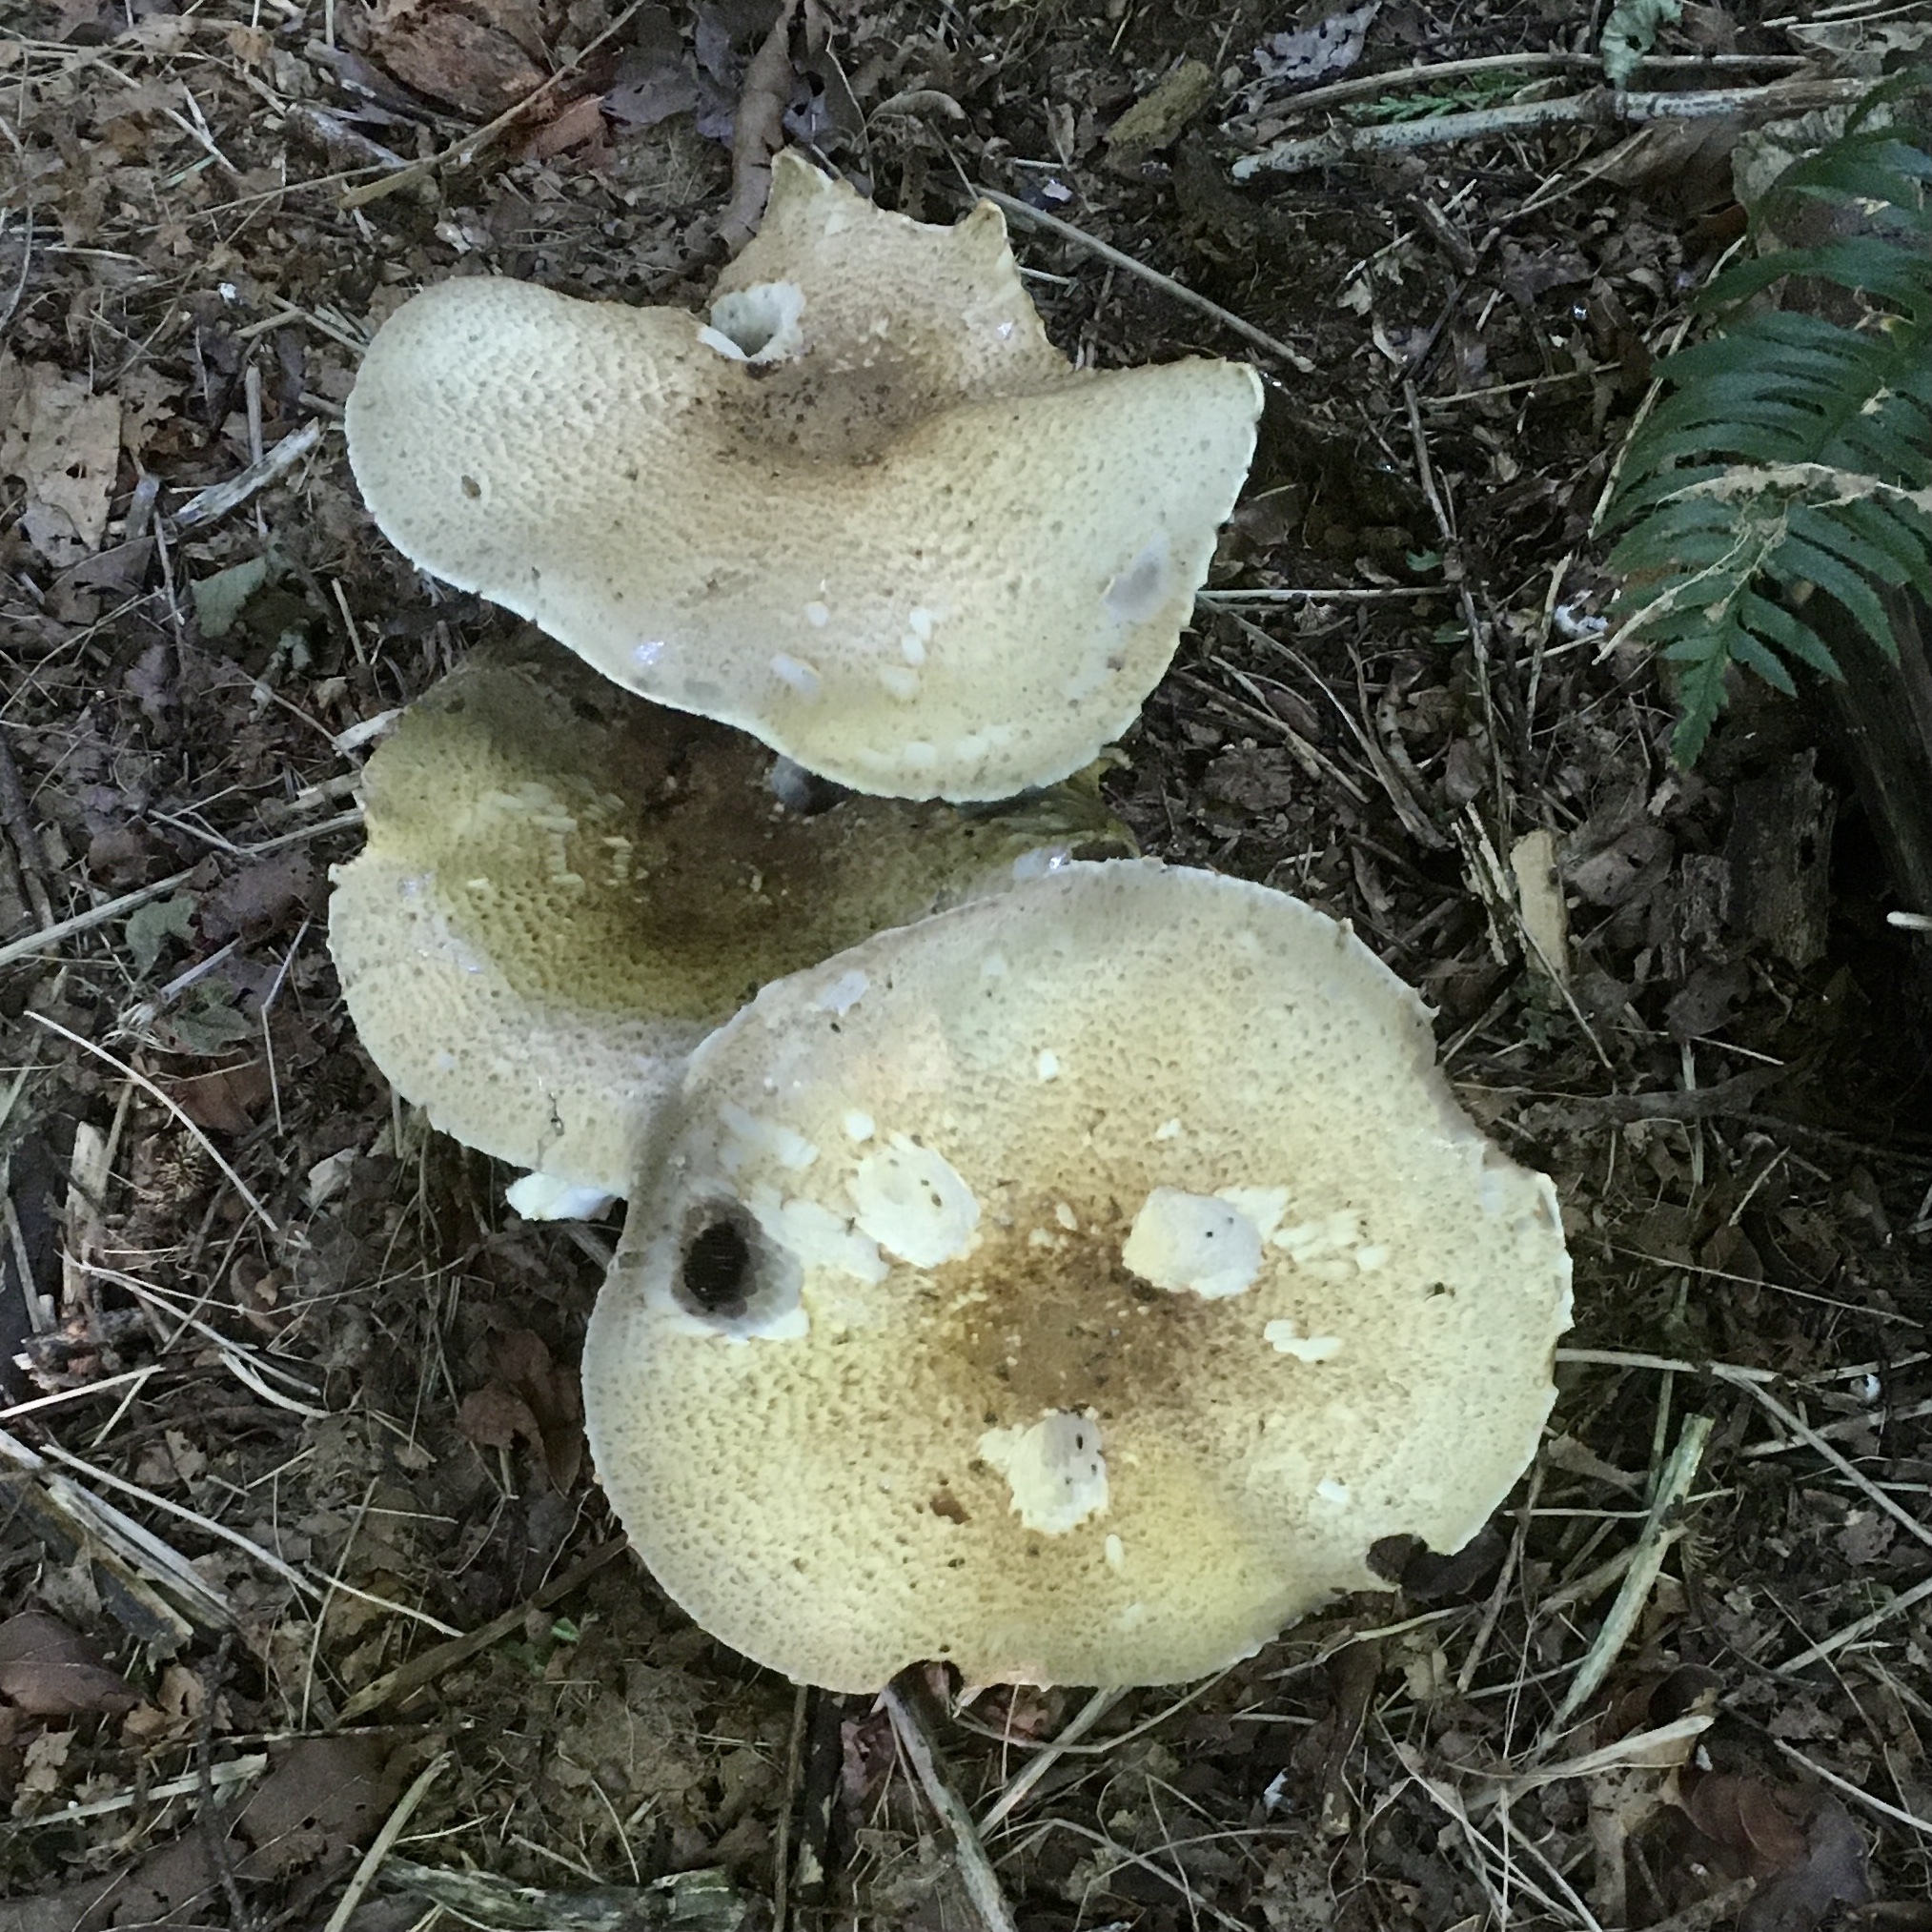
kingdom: Fungi
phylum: Basidiomycota
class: Agaricomycetes
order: Agaricales
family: Agaricaceae
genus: Agaricus
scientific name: Agaricus augustus
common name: Prince
